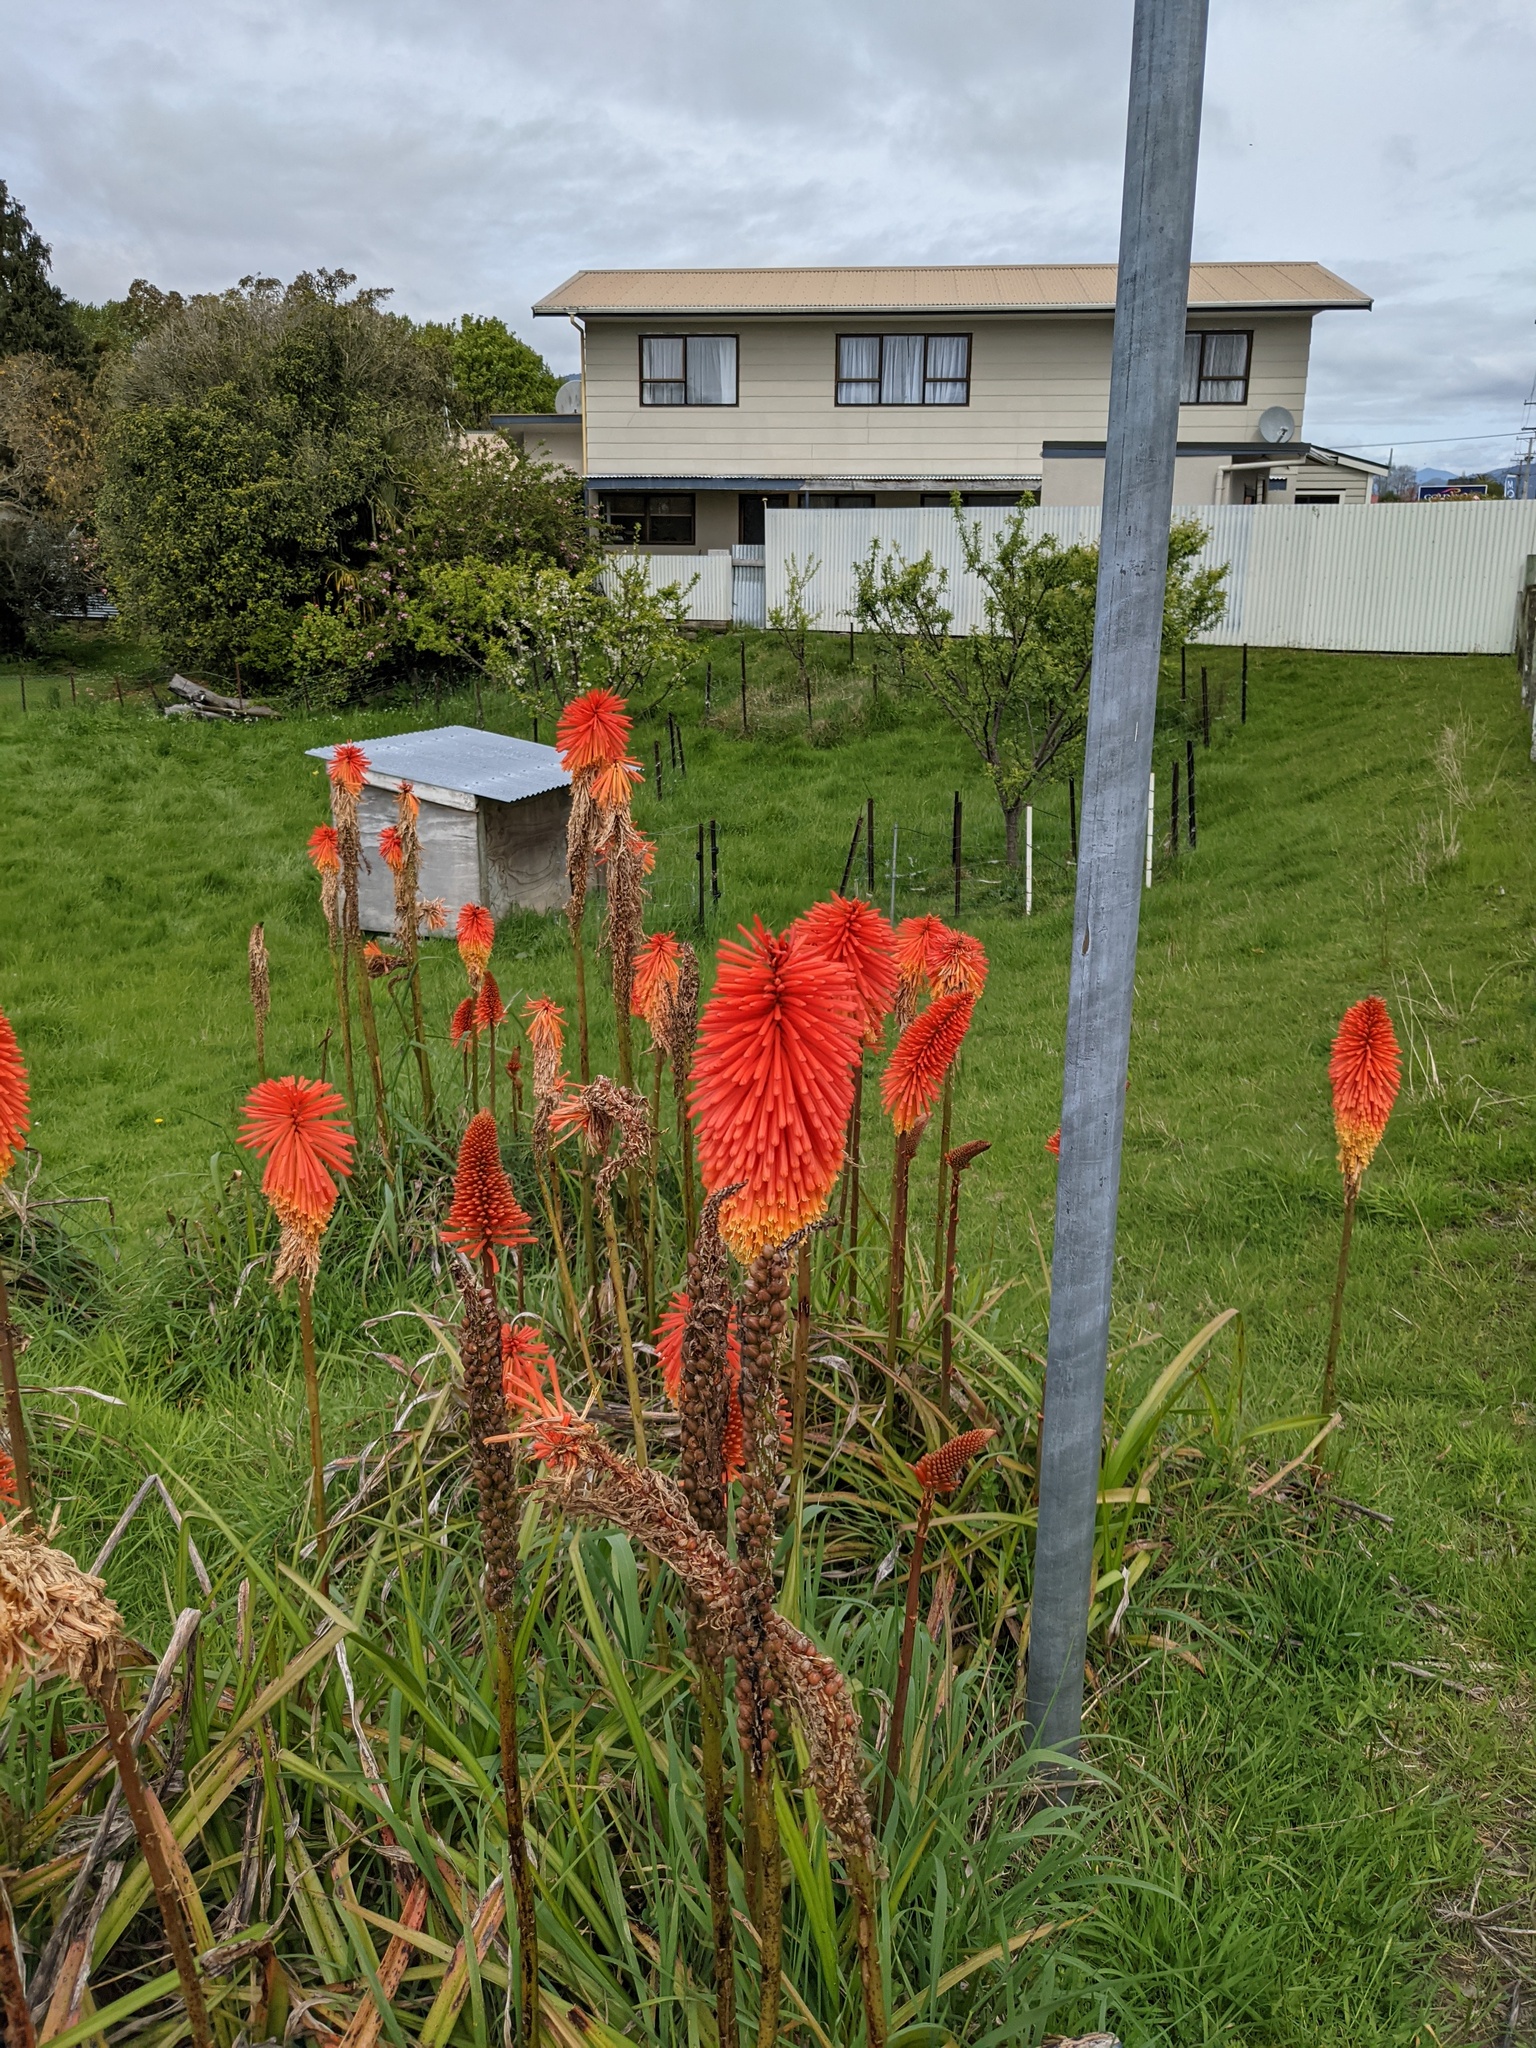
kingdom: Plantae
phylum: Tracheophyta
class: Liliopsida
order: Asparagales
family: Asphodelaceae
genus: Kniphofia
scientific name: Kniphofia uvaria
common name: Red-hot-poker
